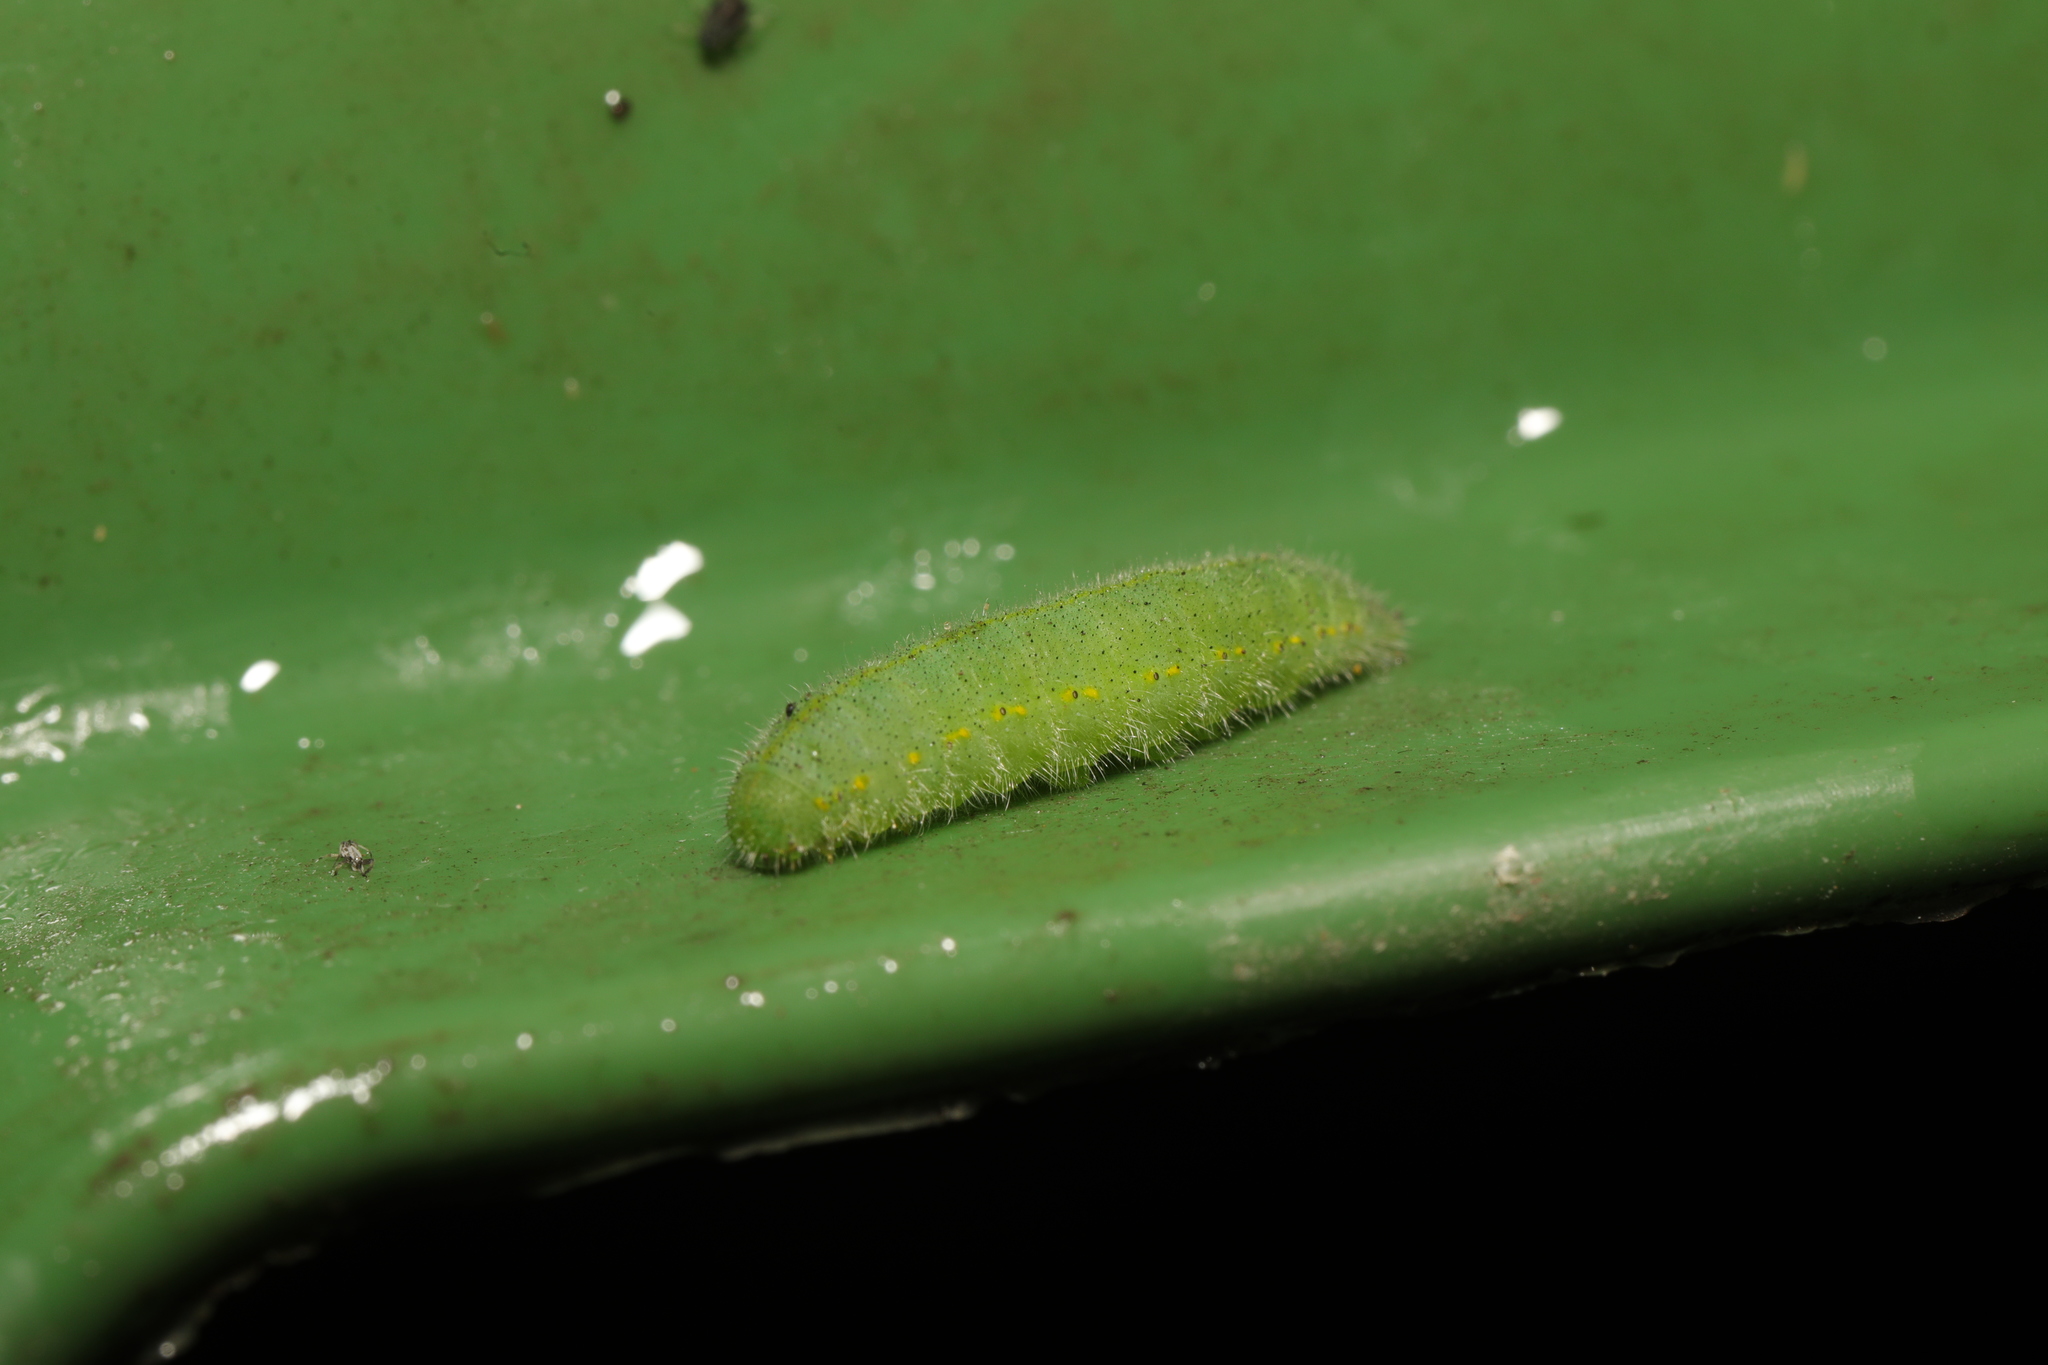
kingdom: Animalia
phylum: Arthropoda
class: Insecta
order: Lepidoptera
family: Pieridae
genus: Pieris
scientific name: Pieris rapae
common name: Small white
